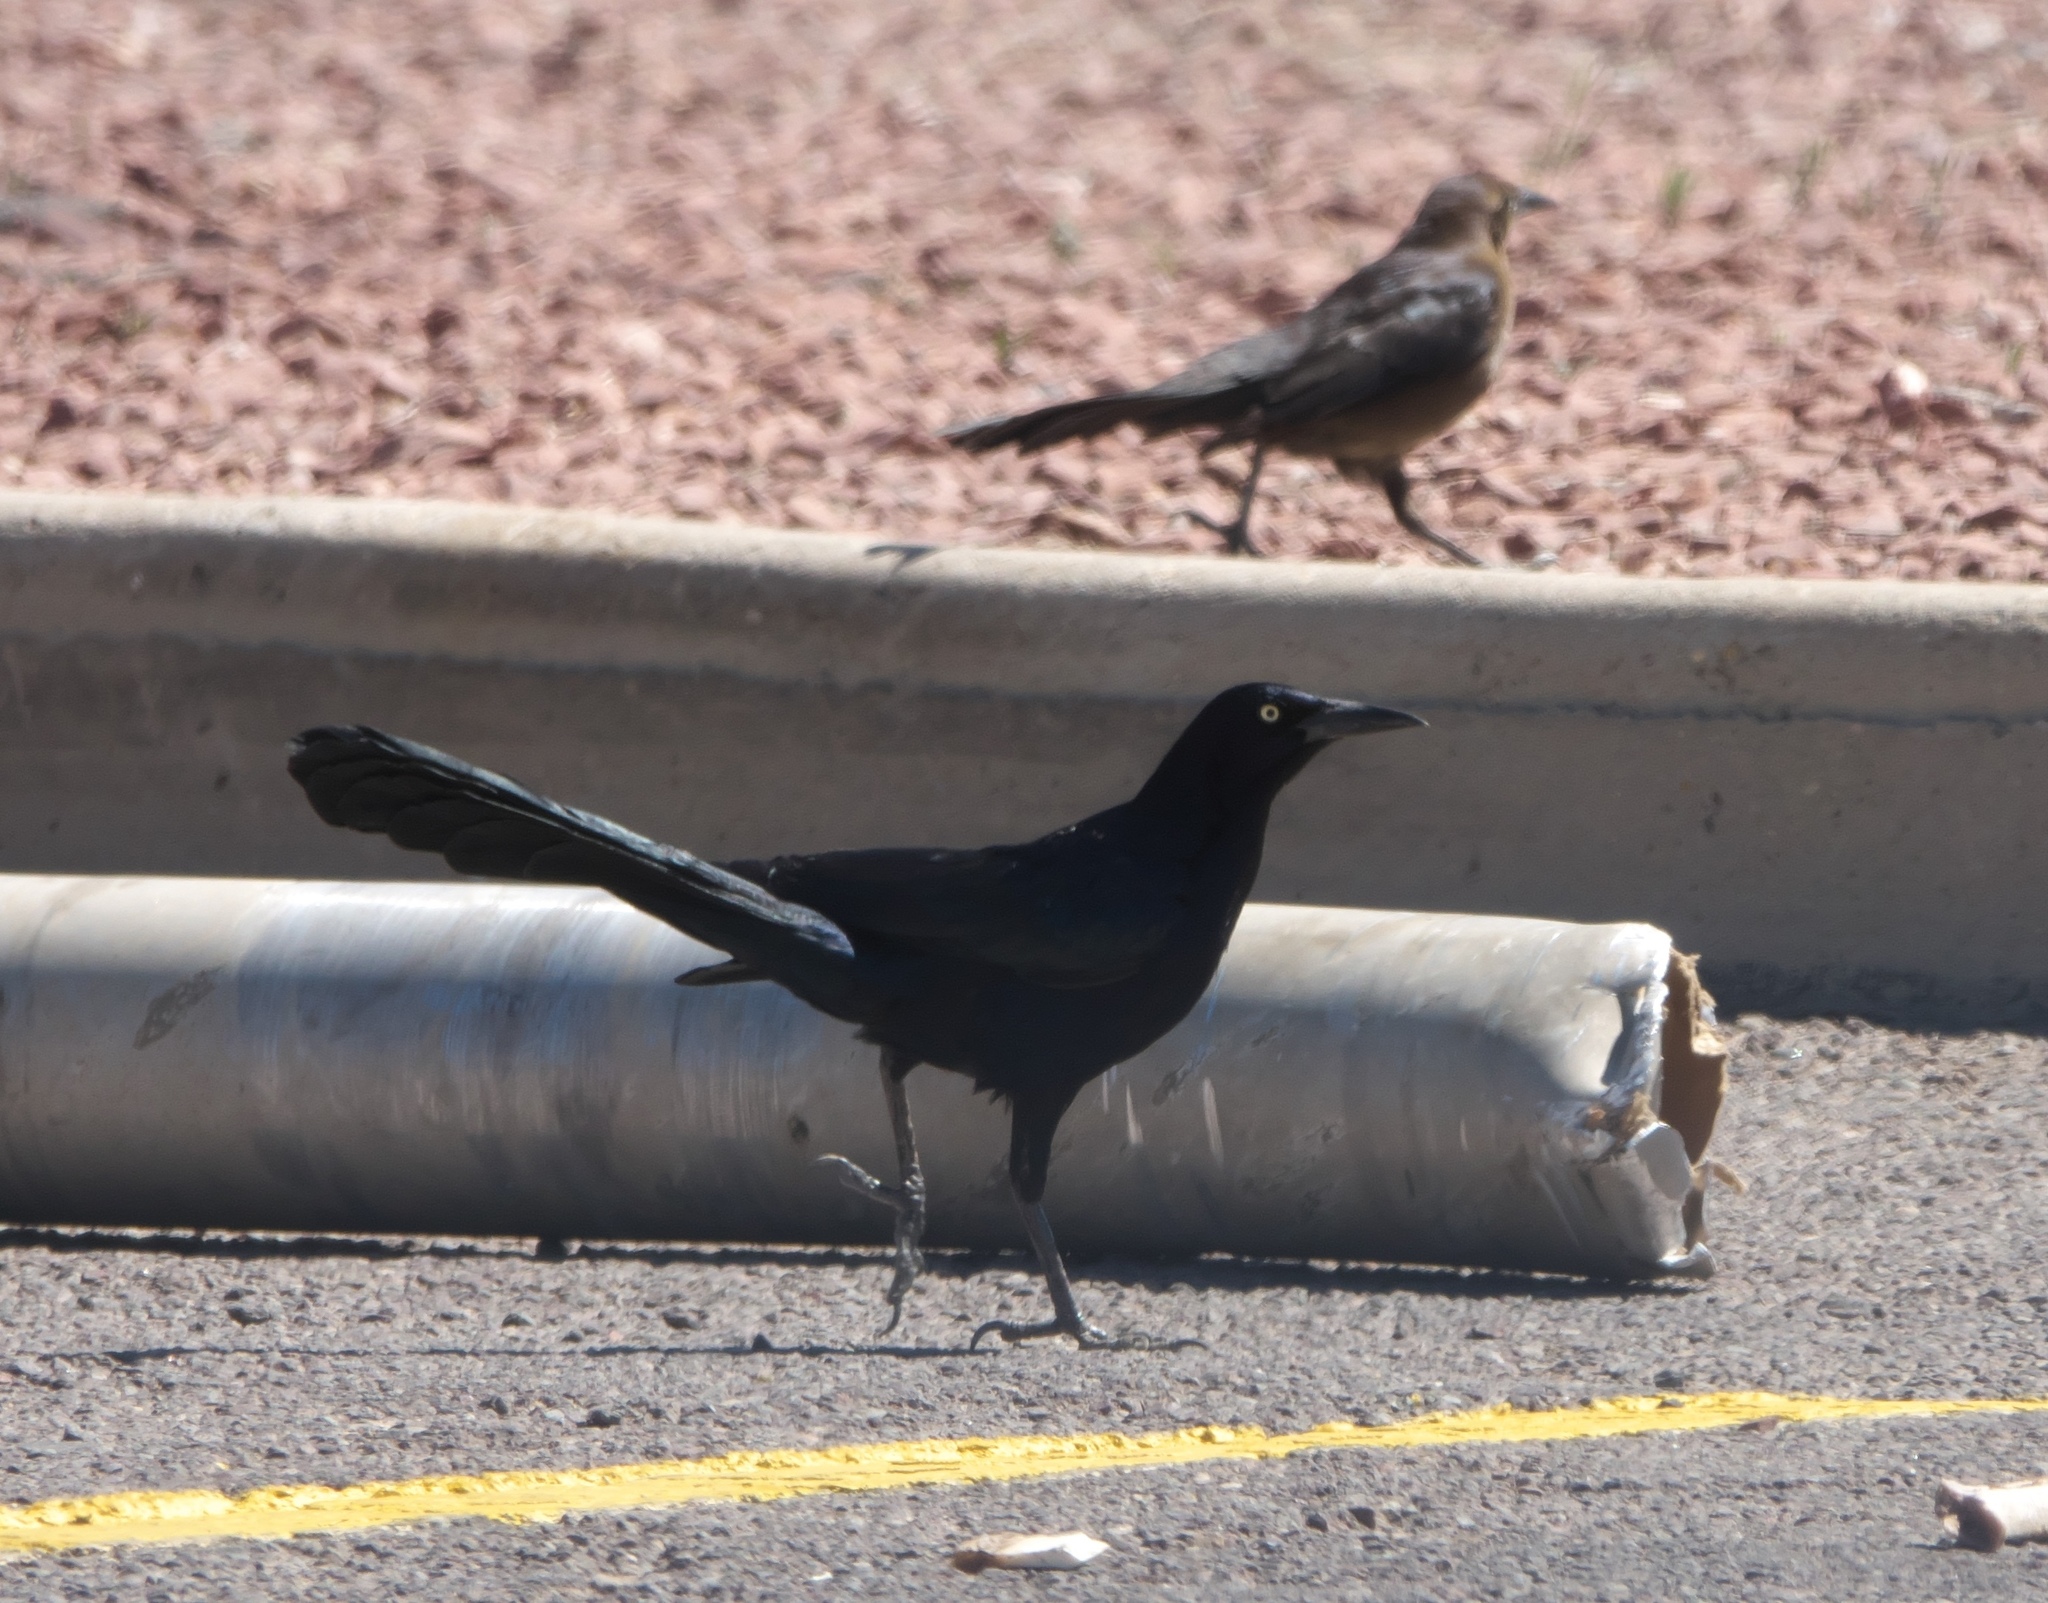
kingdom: Animalia
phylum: Chordata
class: Aves
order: Passeriformes
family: Icteridae
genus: Quiscalus
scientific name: Quiscalus mexicanus
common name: Great-tailed grackle
